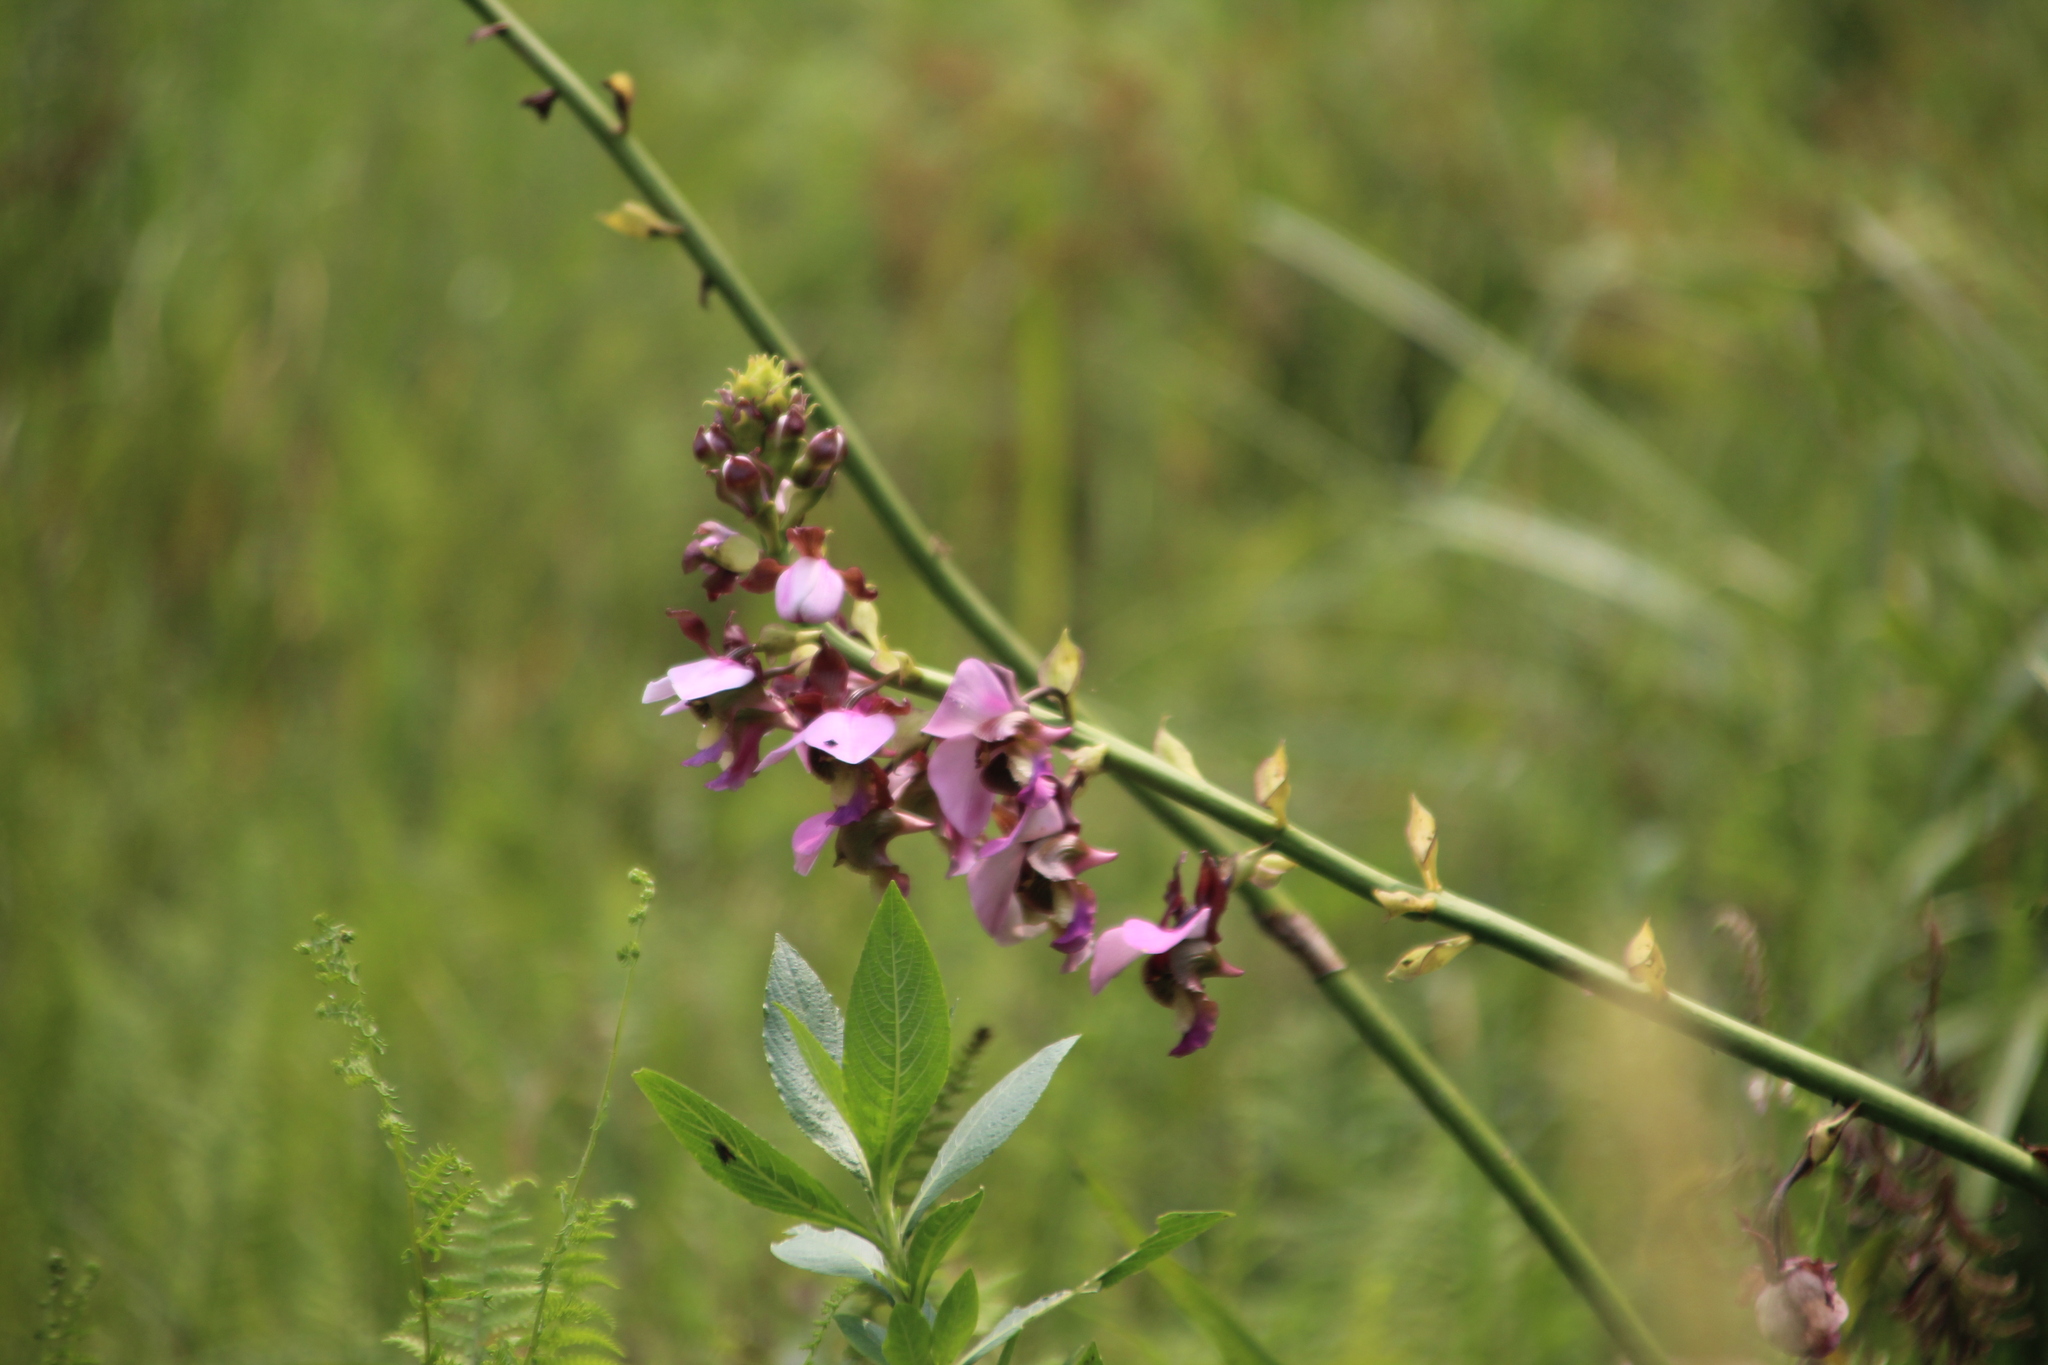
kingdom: Plantae
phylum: Tracheophyta
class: Liliopsida
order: Asparagales
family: Orchidaceae
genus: Eulophia
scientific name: Eulophia horsfallii
